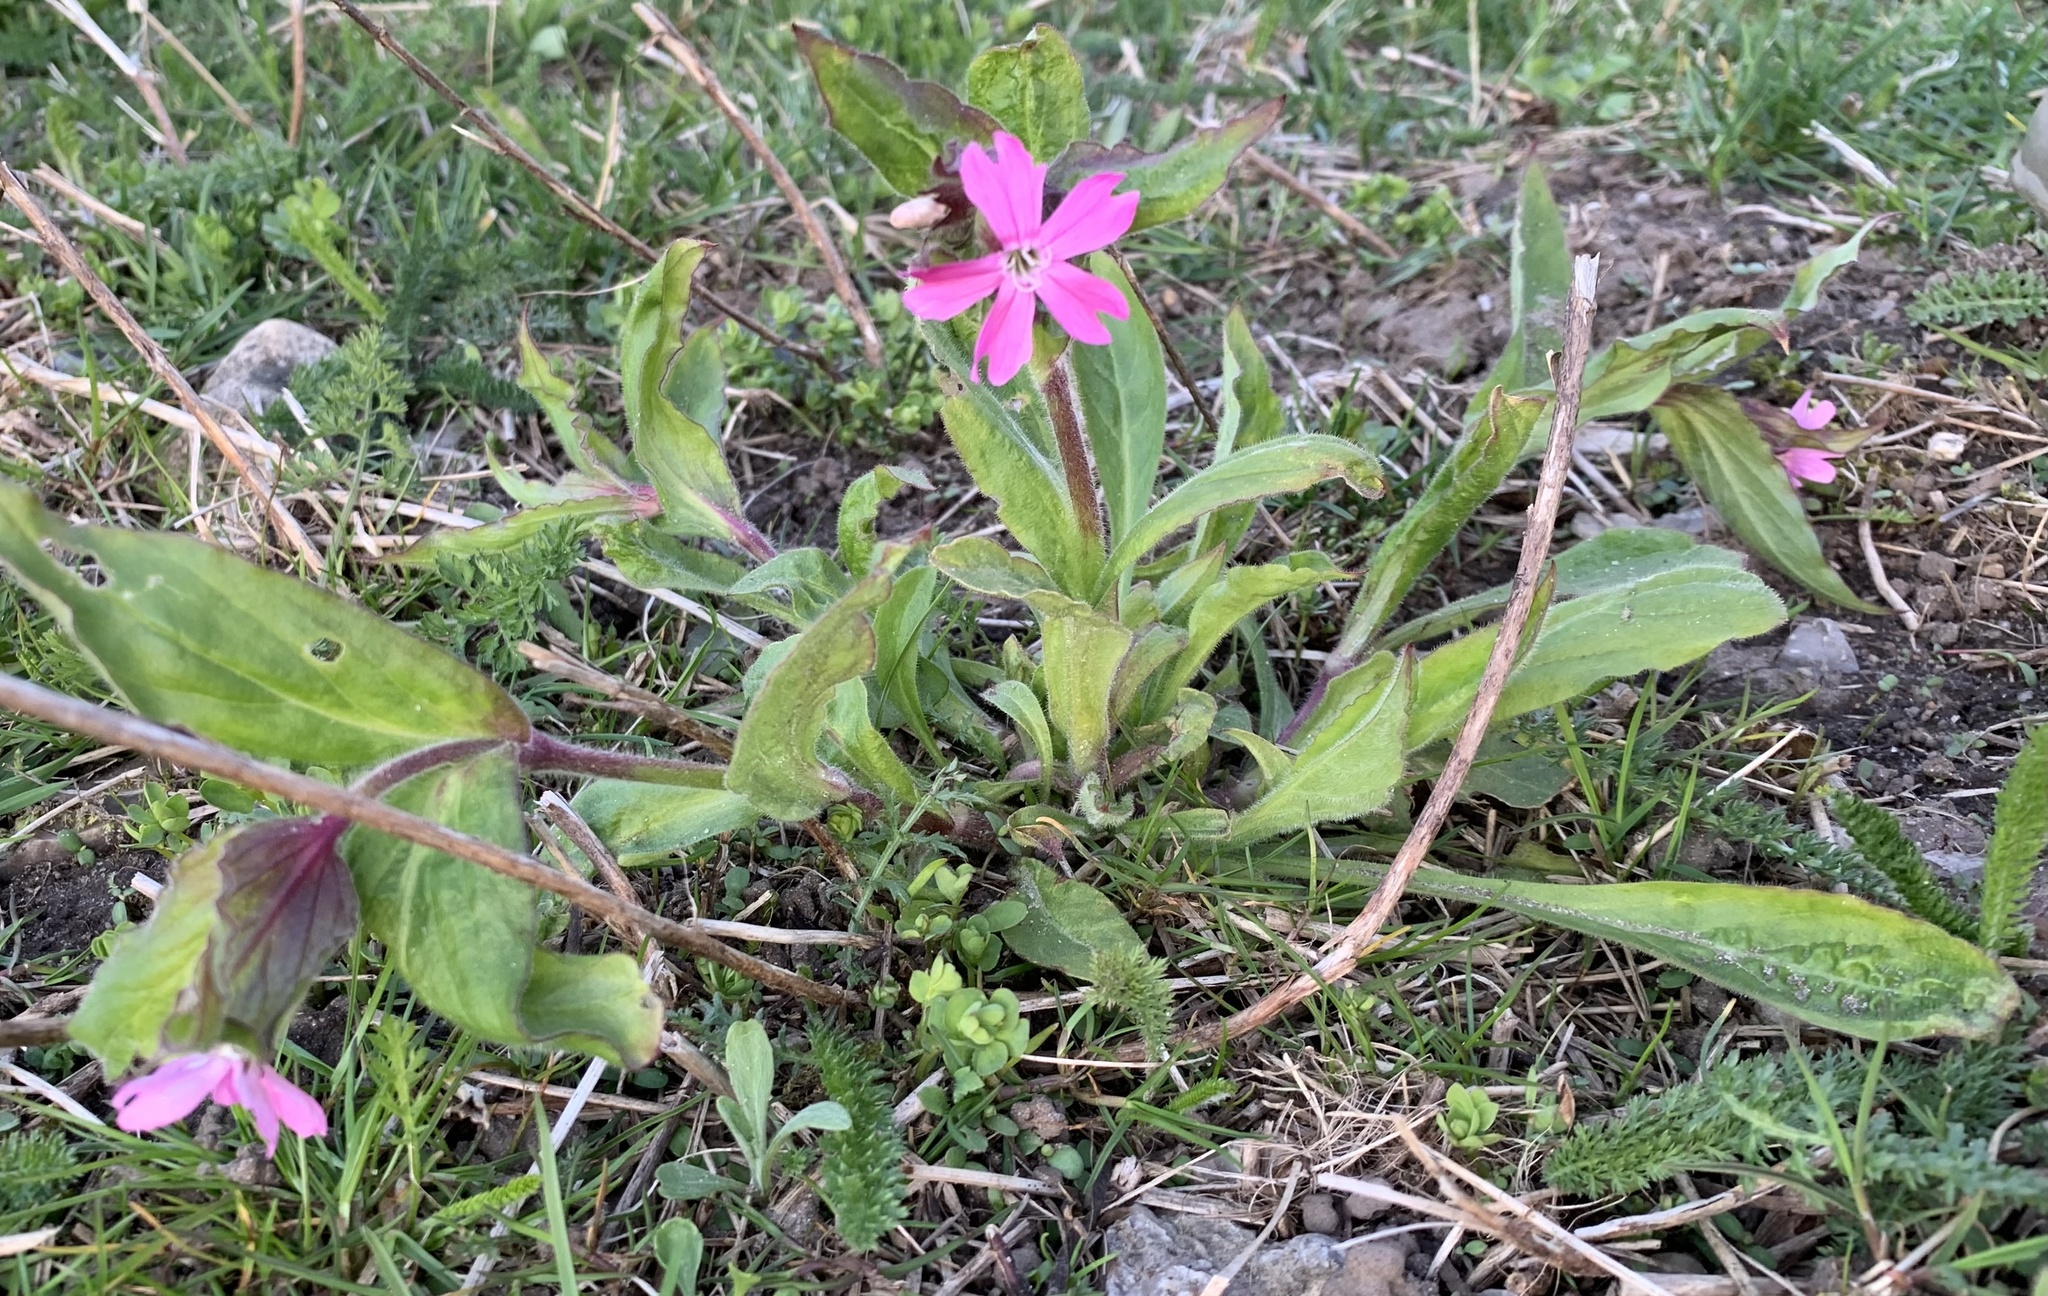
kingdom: Plantae
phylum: Tracheophyta
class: Magnoliopsida
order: Caryophyllales
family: Caryophyllaceae
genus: Silene
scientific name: Silene dioica
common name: Red campion
